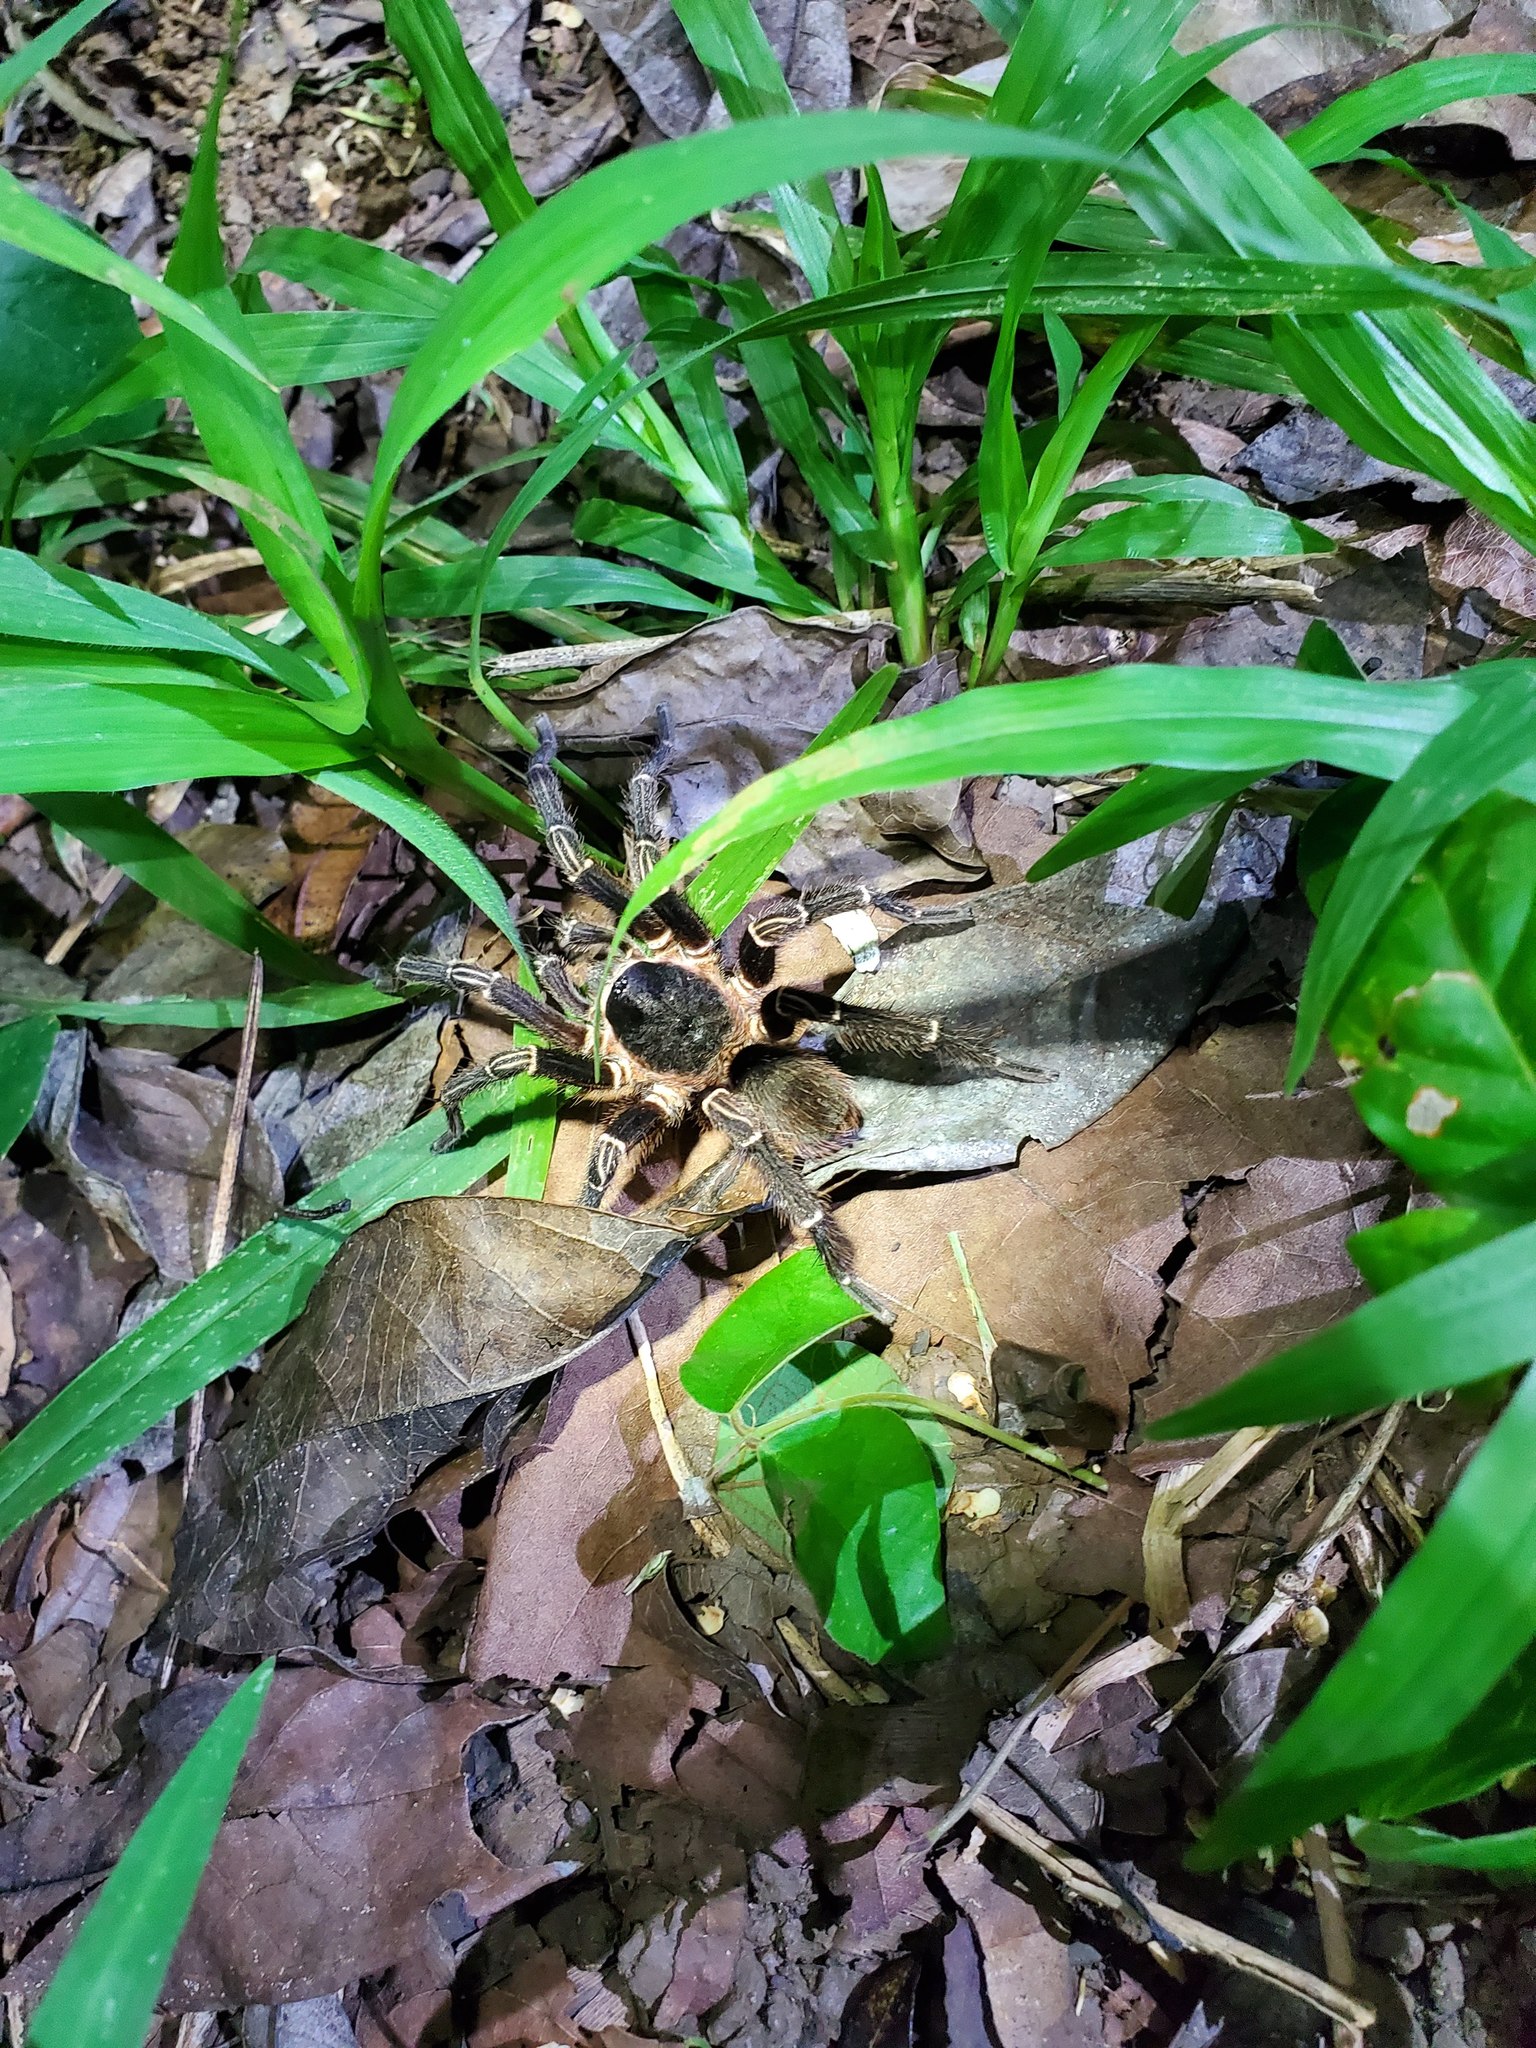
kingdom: Animalia
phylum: Arthropoda
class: Arachnida
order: Araneae
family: Theraphosidae
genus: Cyrtopholis
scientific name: Cyrtopholis portoricae
